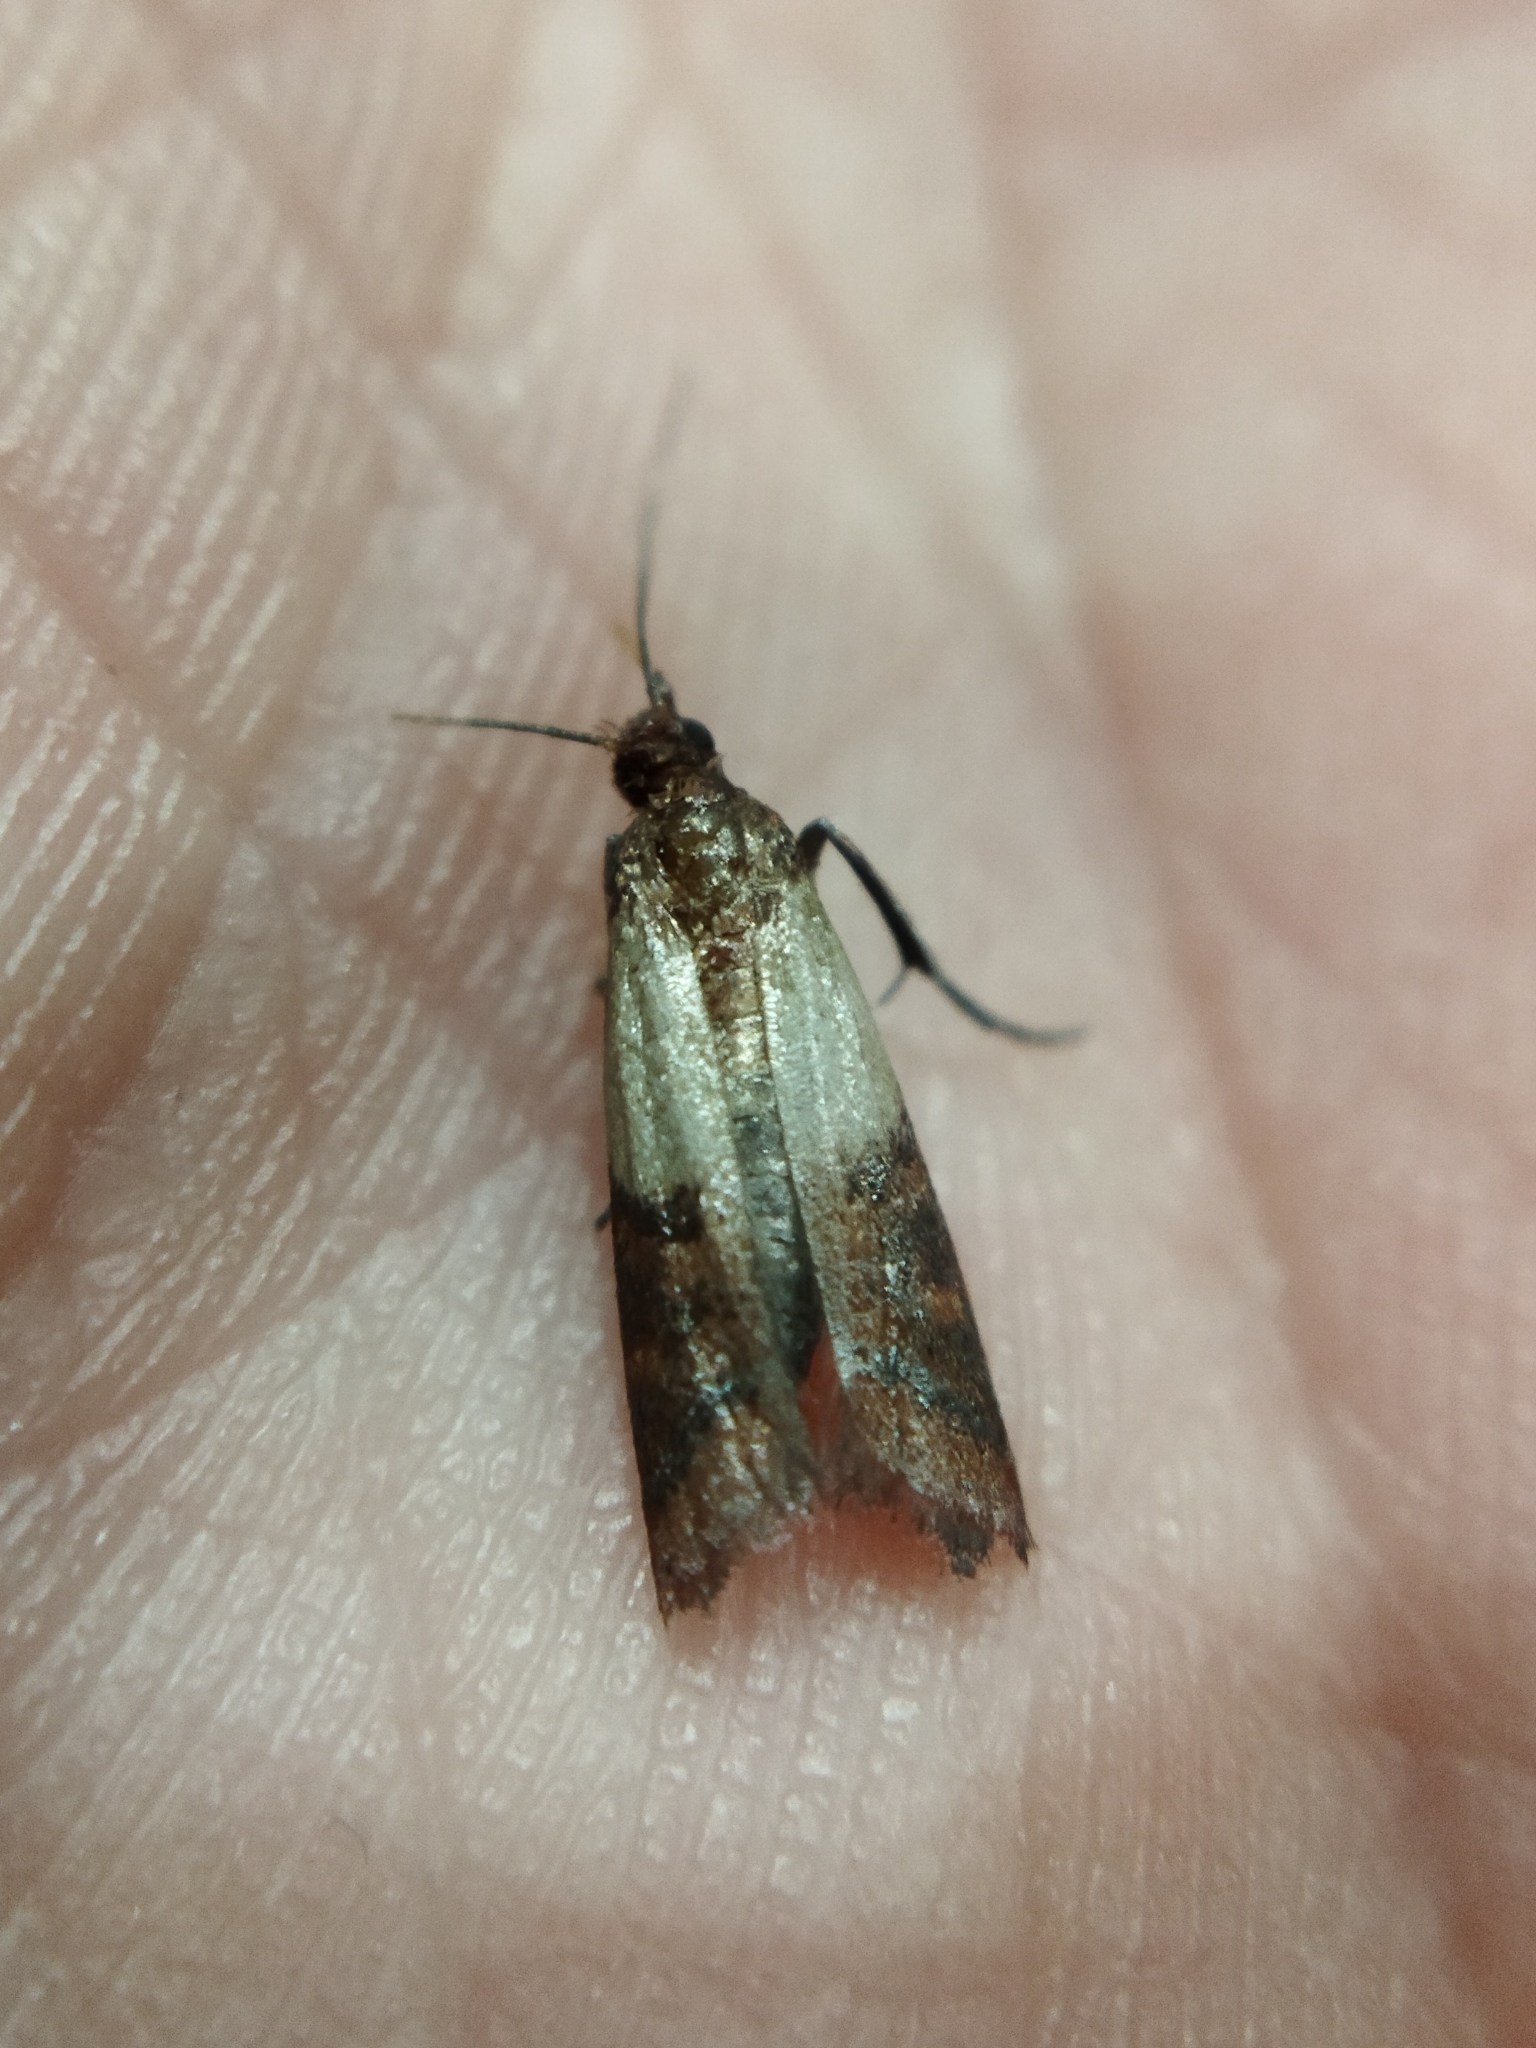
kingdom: Animalia
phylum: Arthropoda
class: Insecta
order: Lepidoptera
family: Pyralidae
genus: Plodia
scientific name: Plodia interpunctella
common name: Indian meal moth
